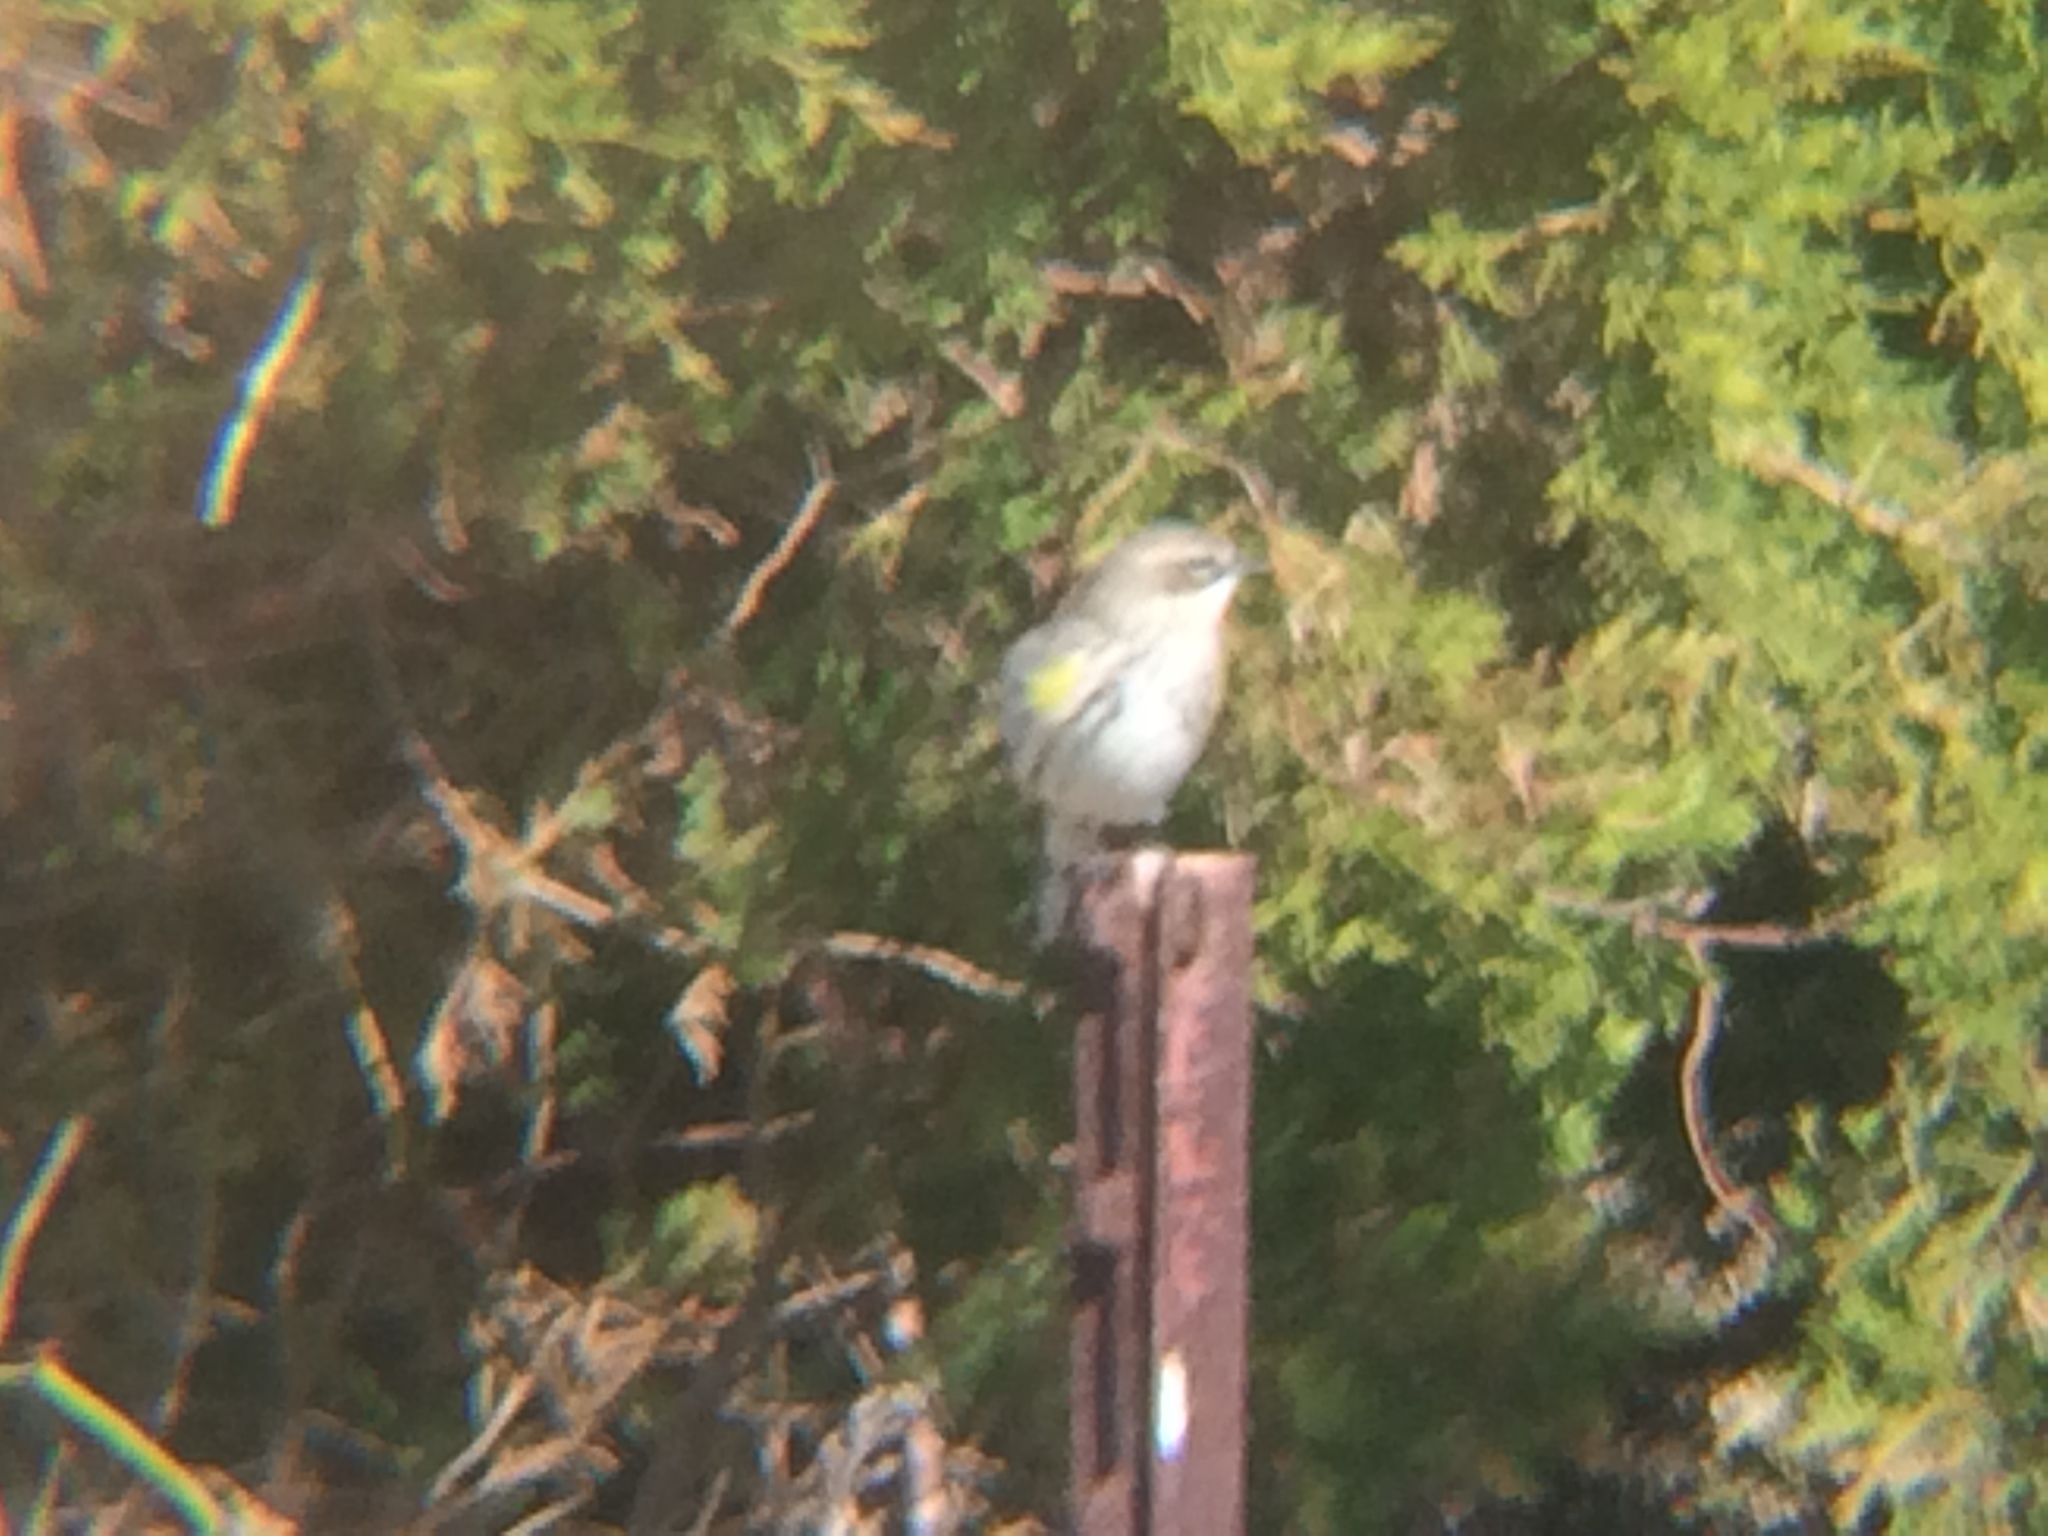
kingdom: Animalia
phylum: Chordata
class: Aves
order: Passeriformes
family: Parulidae
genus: Setophaga
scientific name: Setophaga coronata
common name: Myrtle warbler
